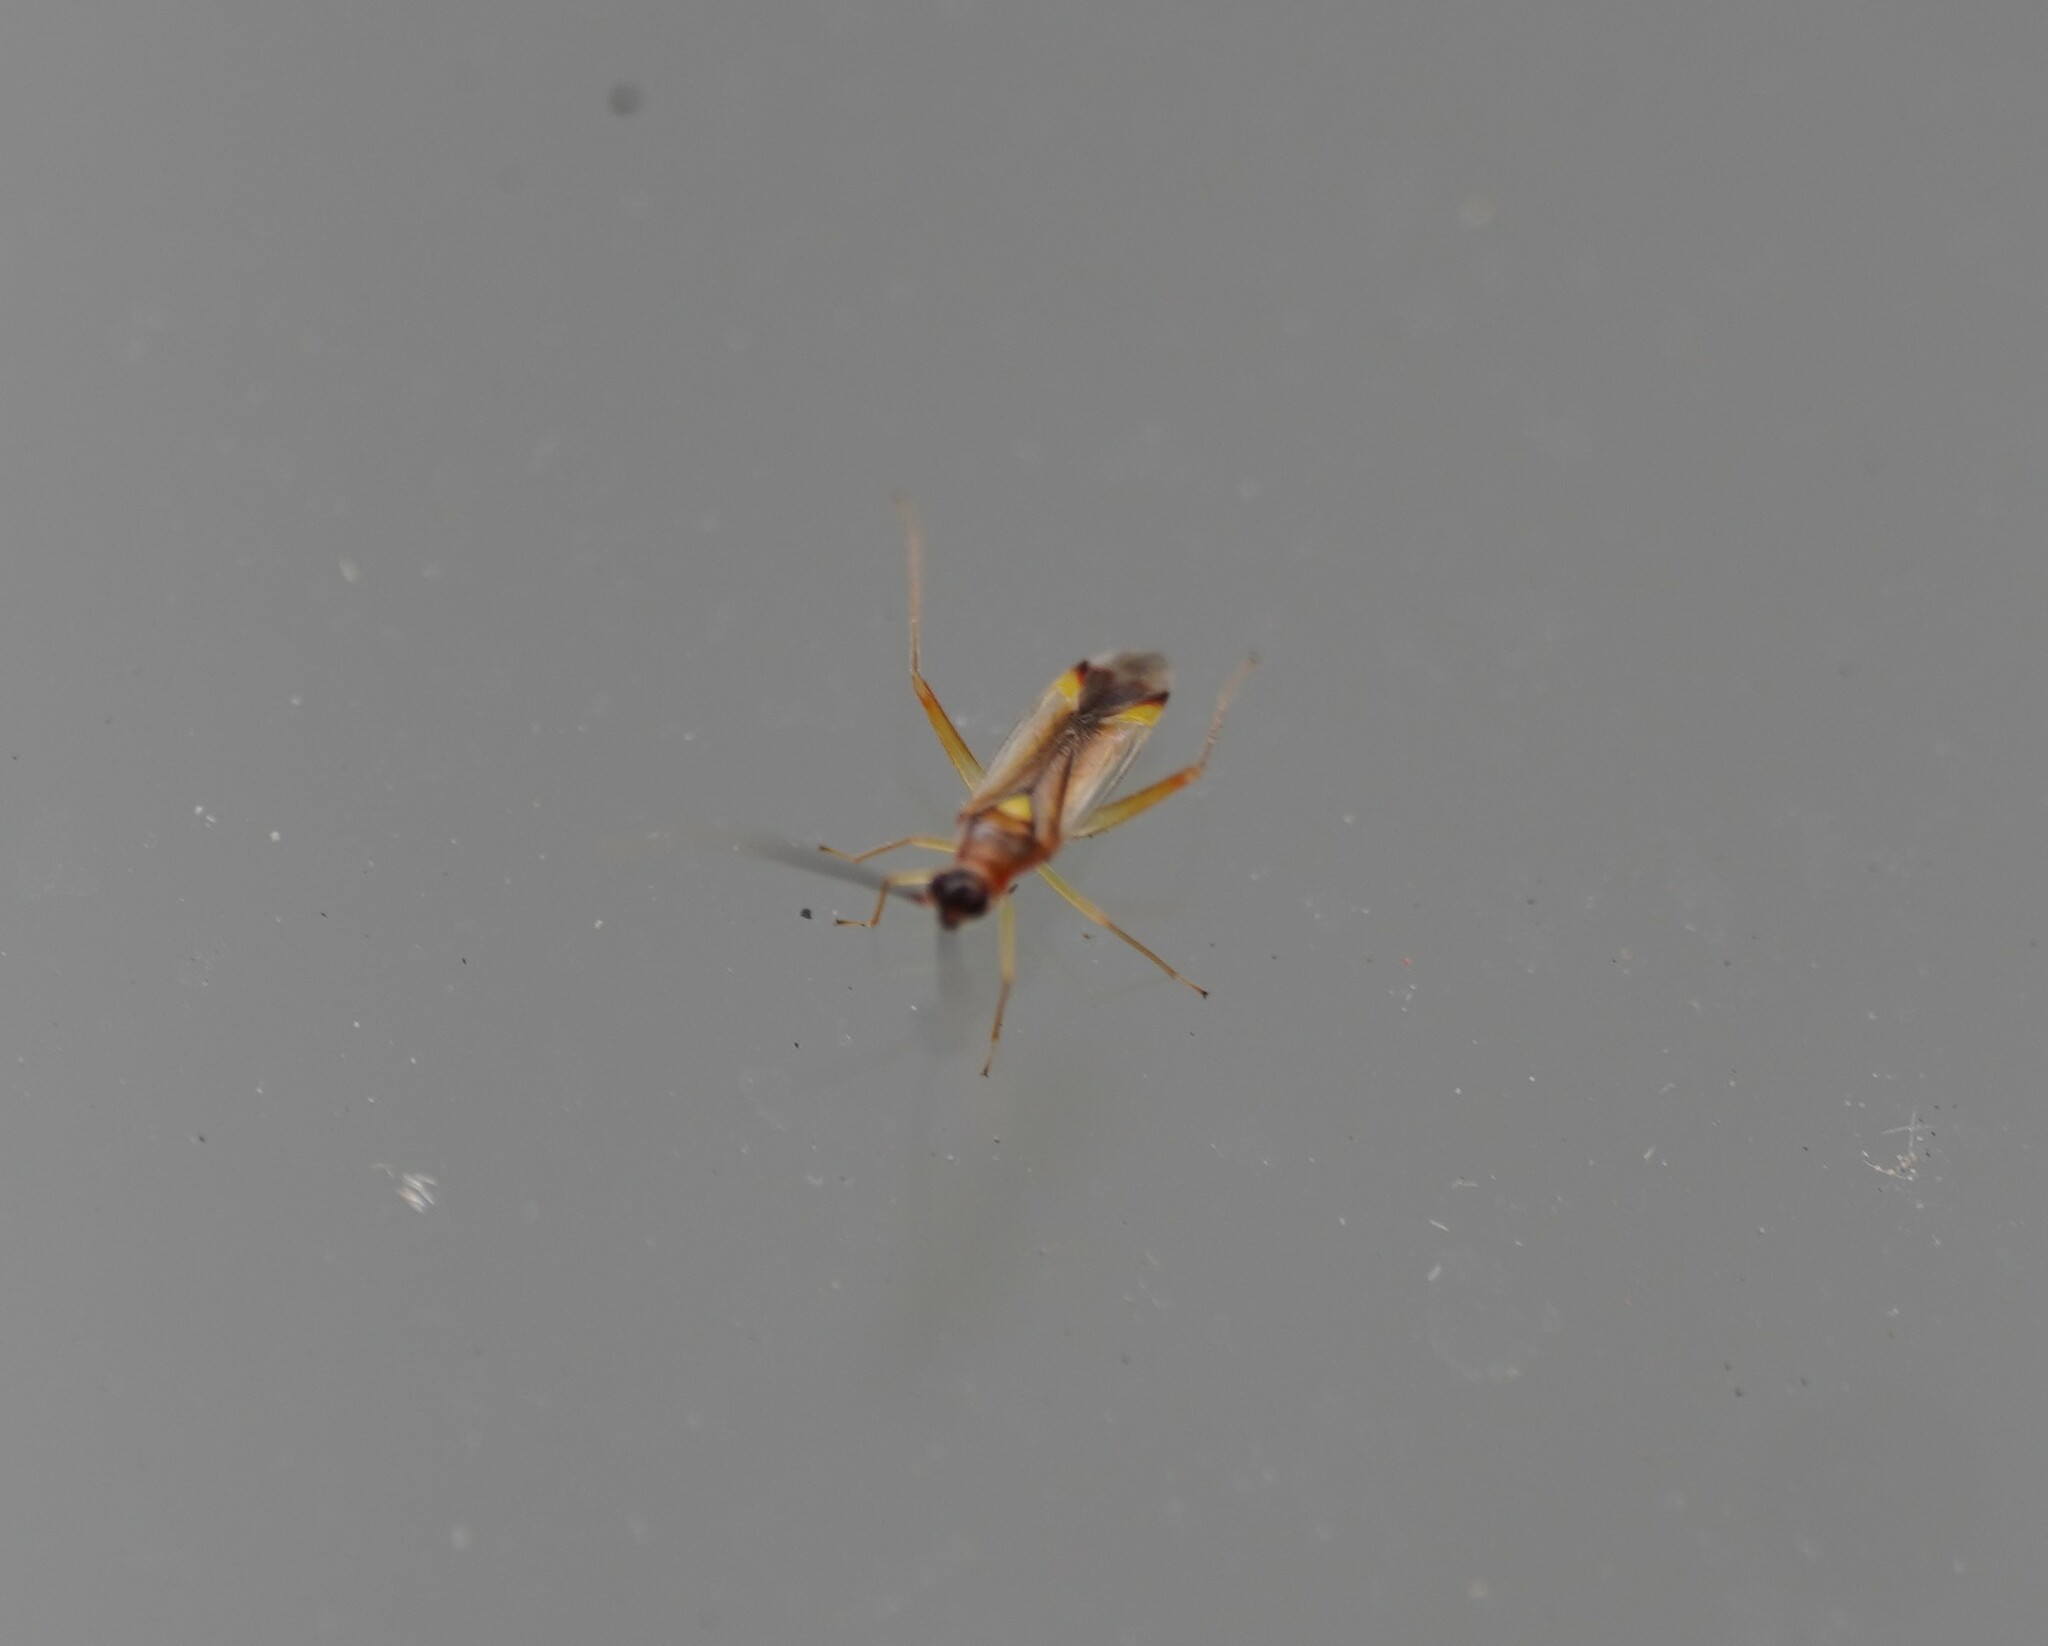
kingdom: Animalia
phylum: Arthropoda
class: Insecta
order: Hemiptera
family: Miridae
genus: Campyloneura
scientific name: Campyloneura virgula
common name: Predatory bug
